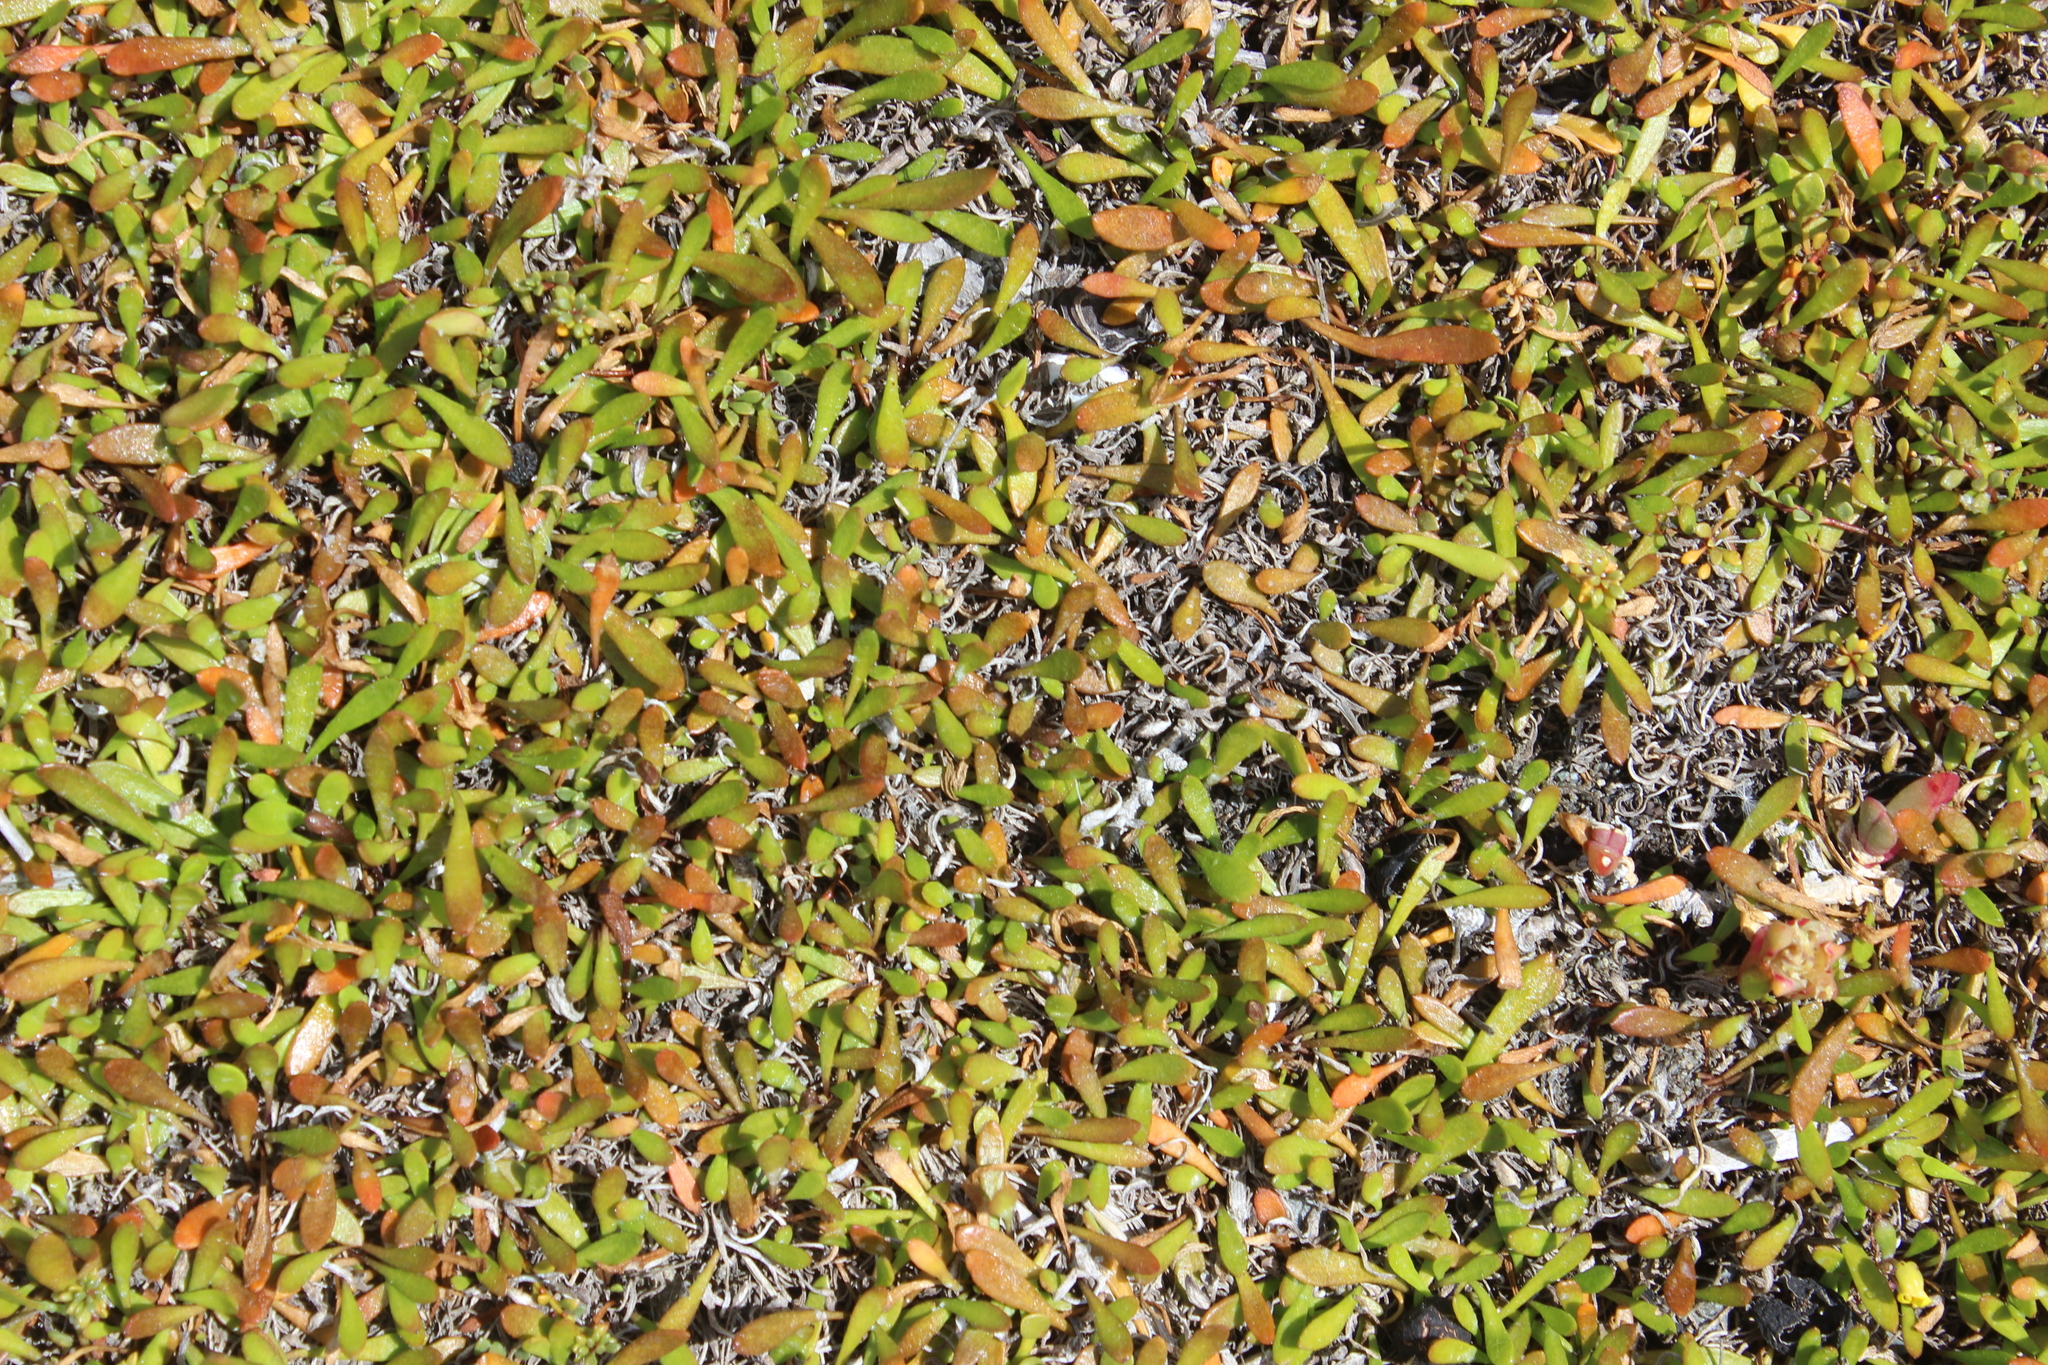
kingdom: Plantae
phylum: Tracheophyta
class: Magnoliopsida
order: Asterales
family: Goodeniaceae
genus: Goodenia
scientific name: Goodenia radicans
